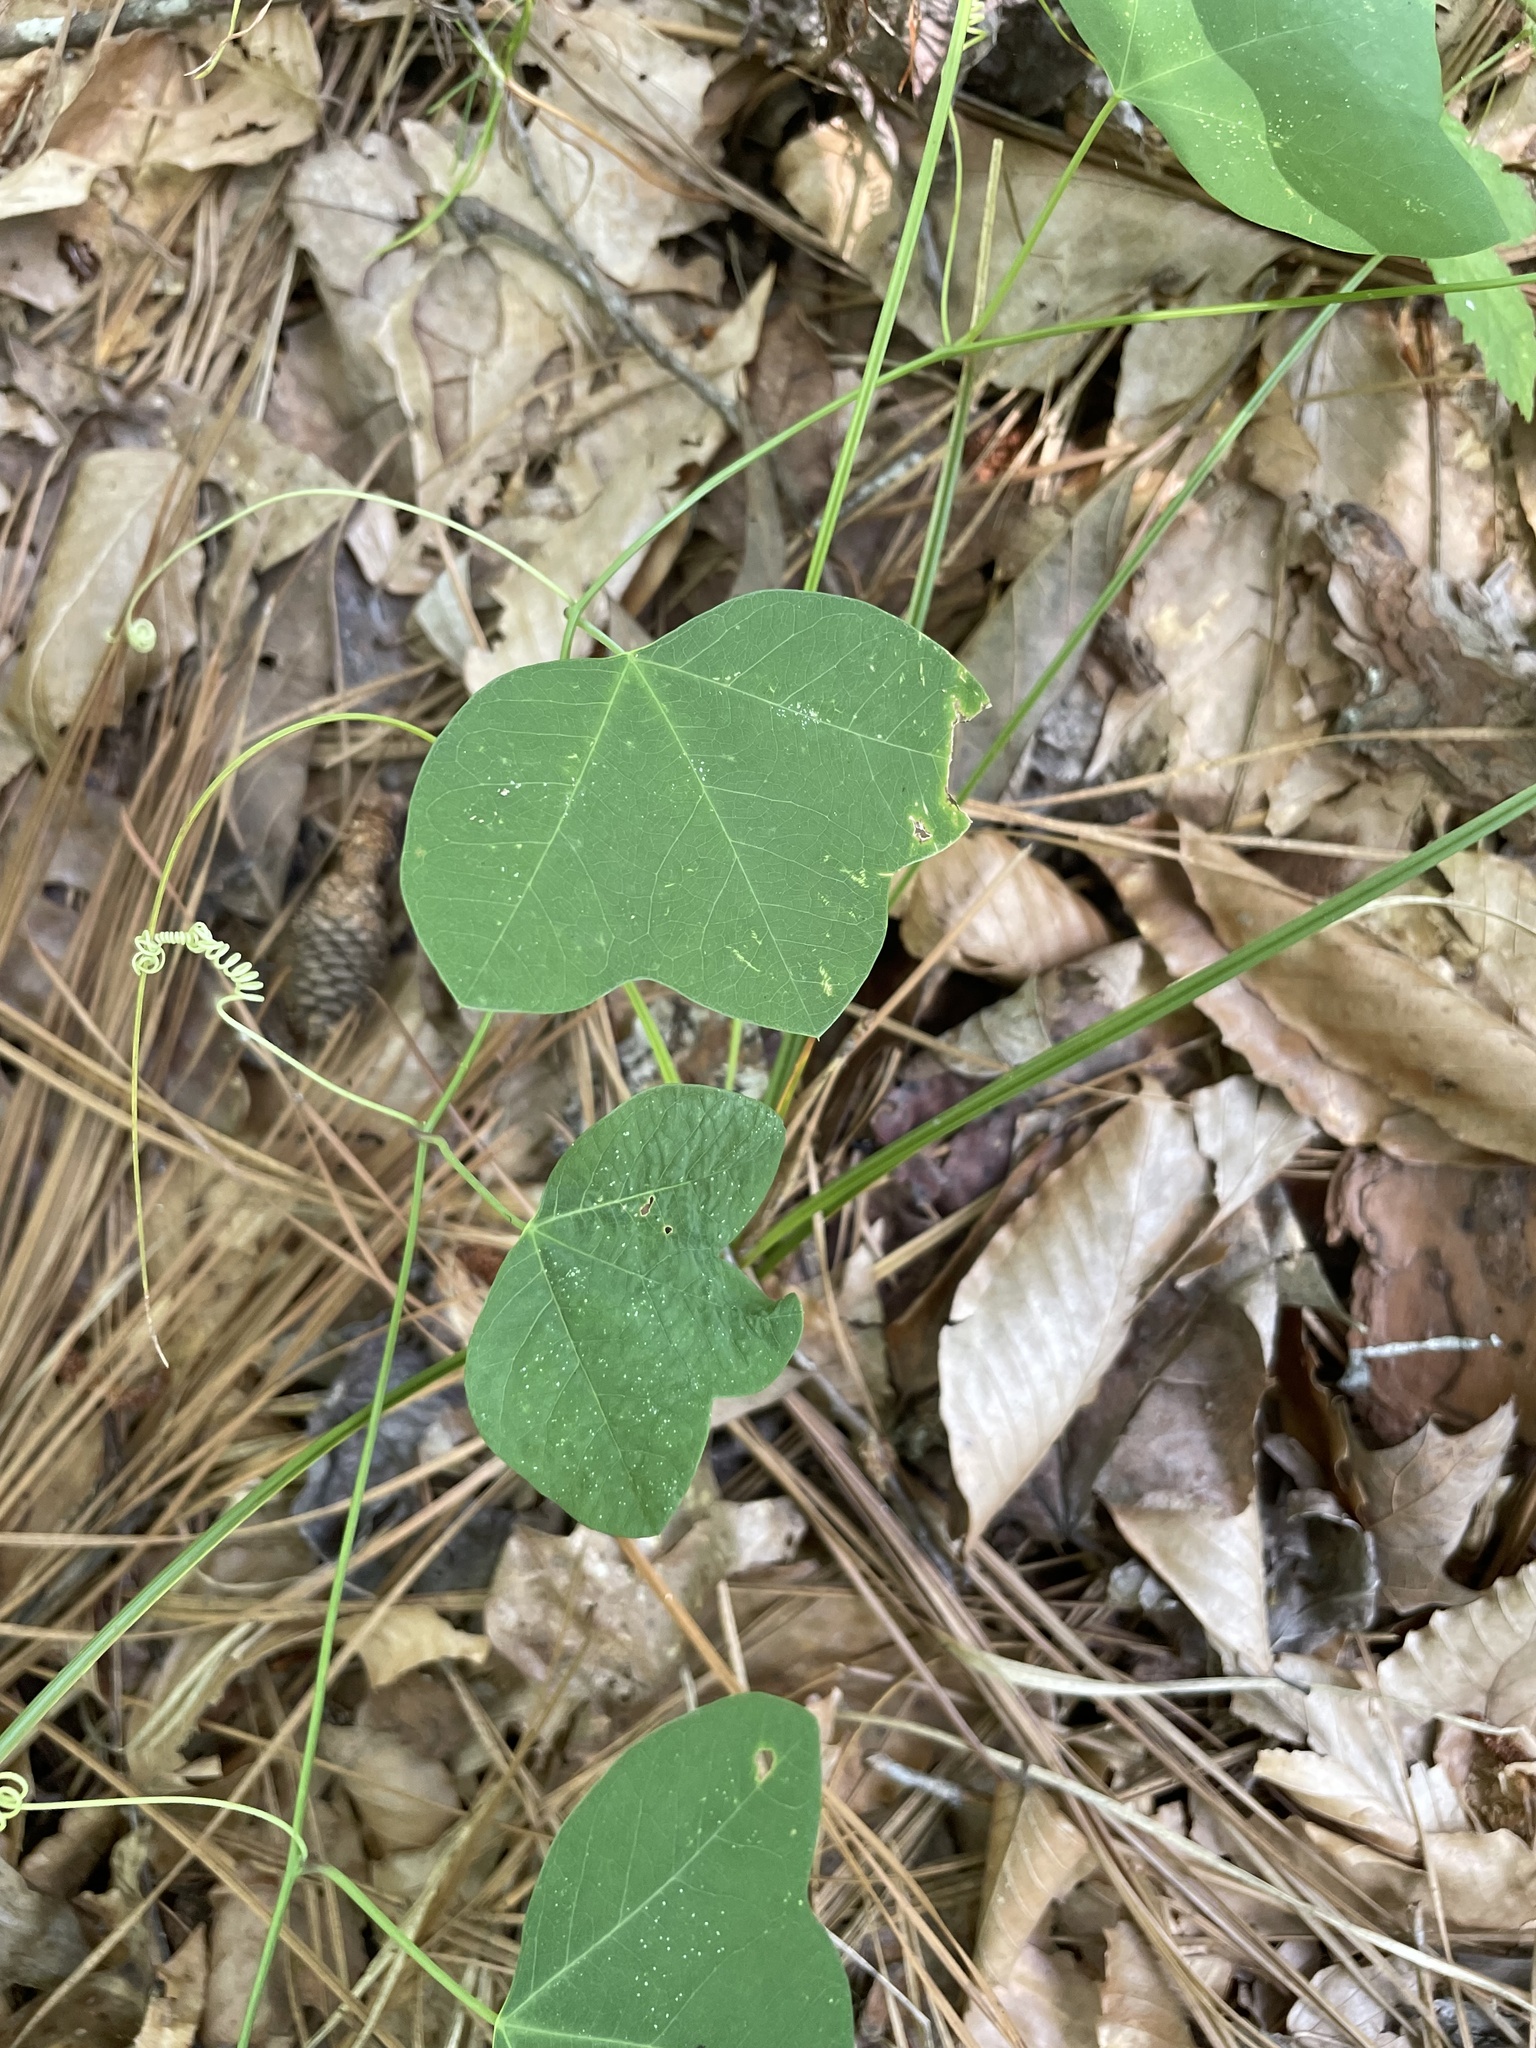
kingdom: Plantae
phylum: Tracheophyta
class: Magnoliopsida
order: Malpighiales
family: Passifloraceae
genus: Passiflora
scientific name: Passiflora lutea
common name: Yellow passionflower
